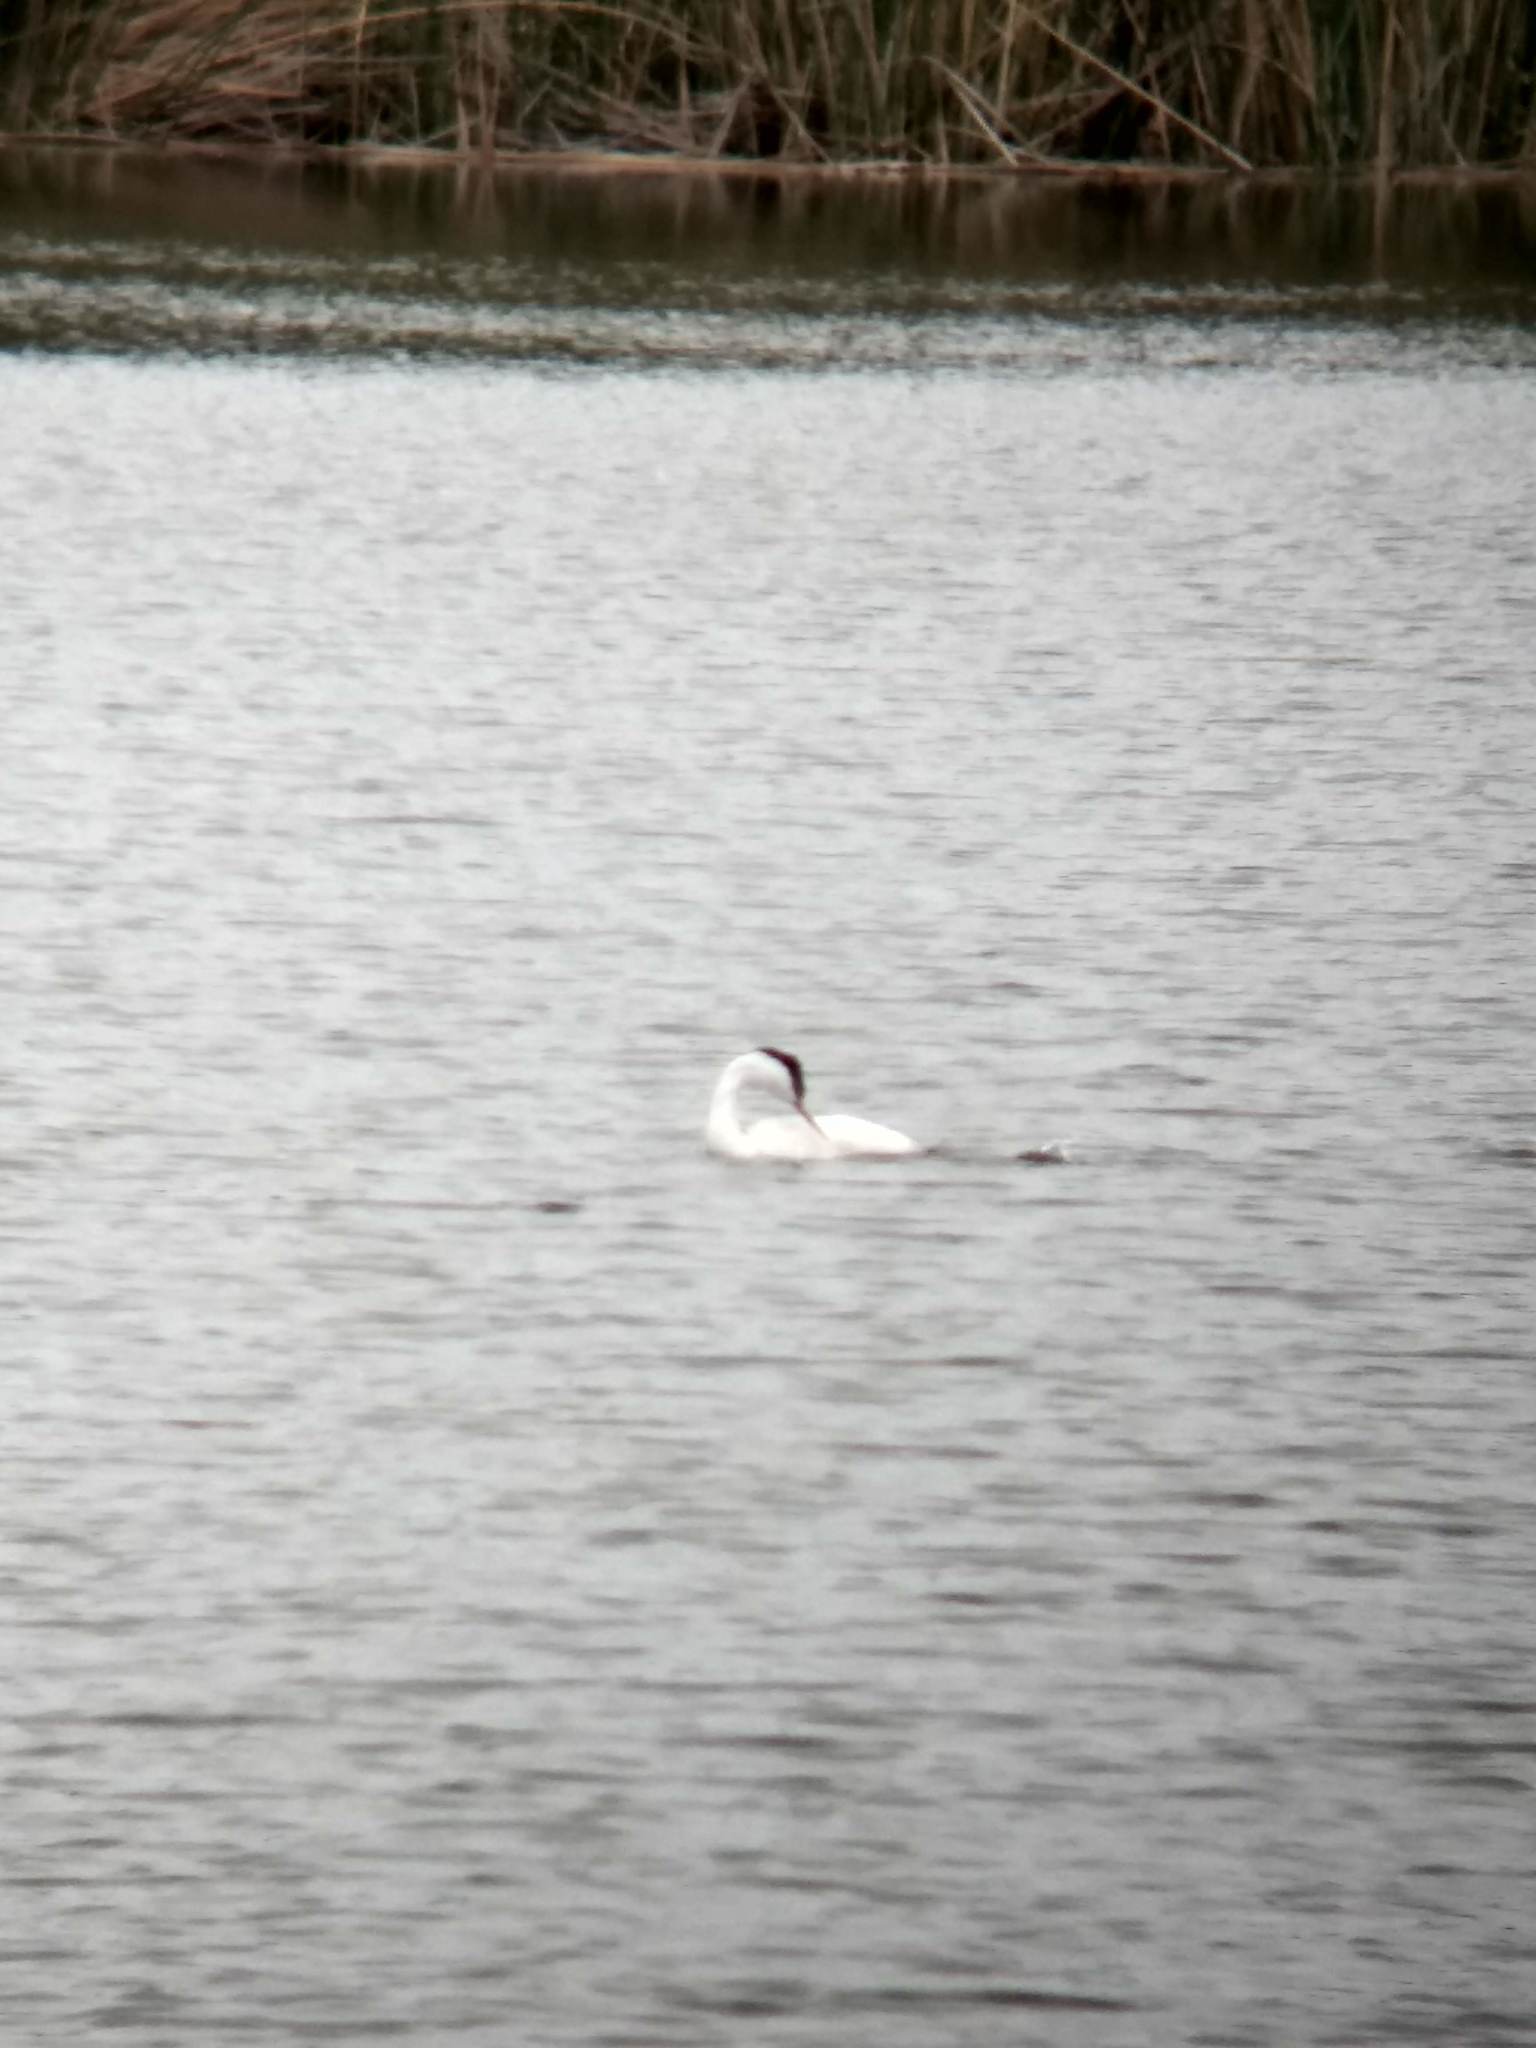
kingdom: Animalia
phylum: Chordata
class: Aves
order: Podicipediformes
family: Podicipedidae
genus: Aechmophorus
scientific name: Aechmophorus occidentalis
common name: Western grebe
